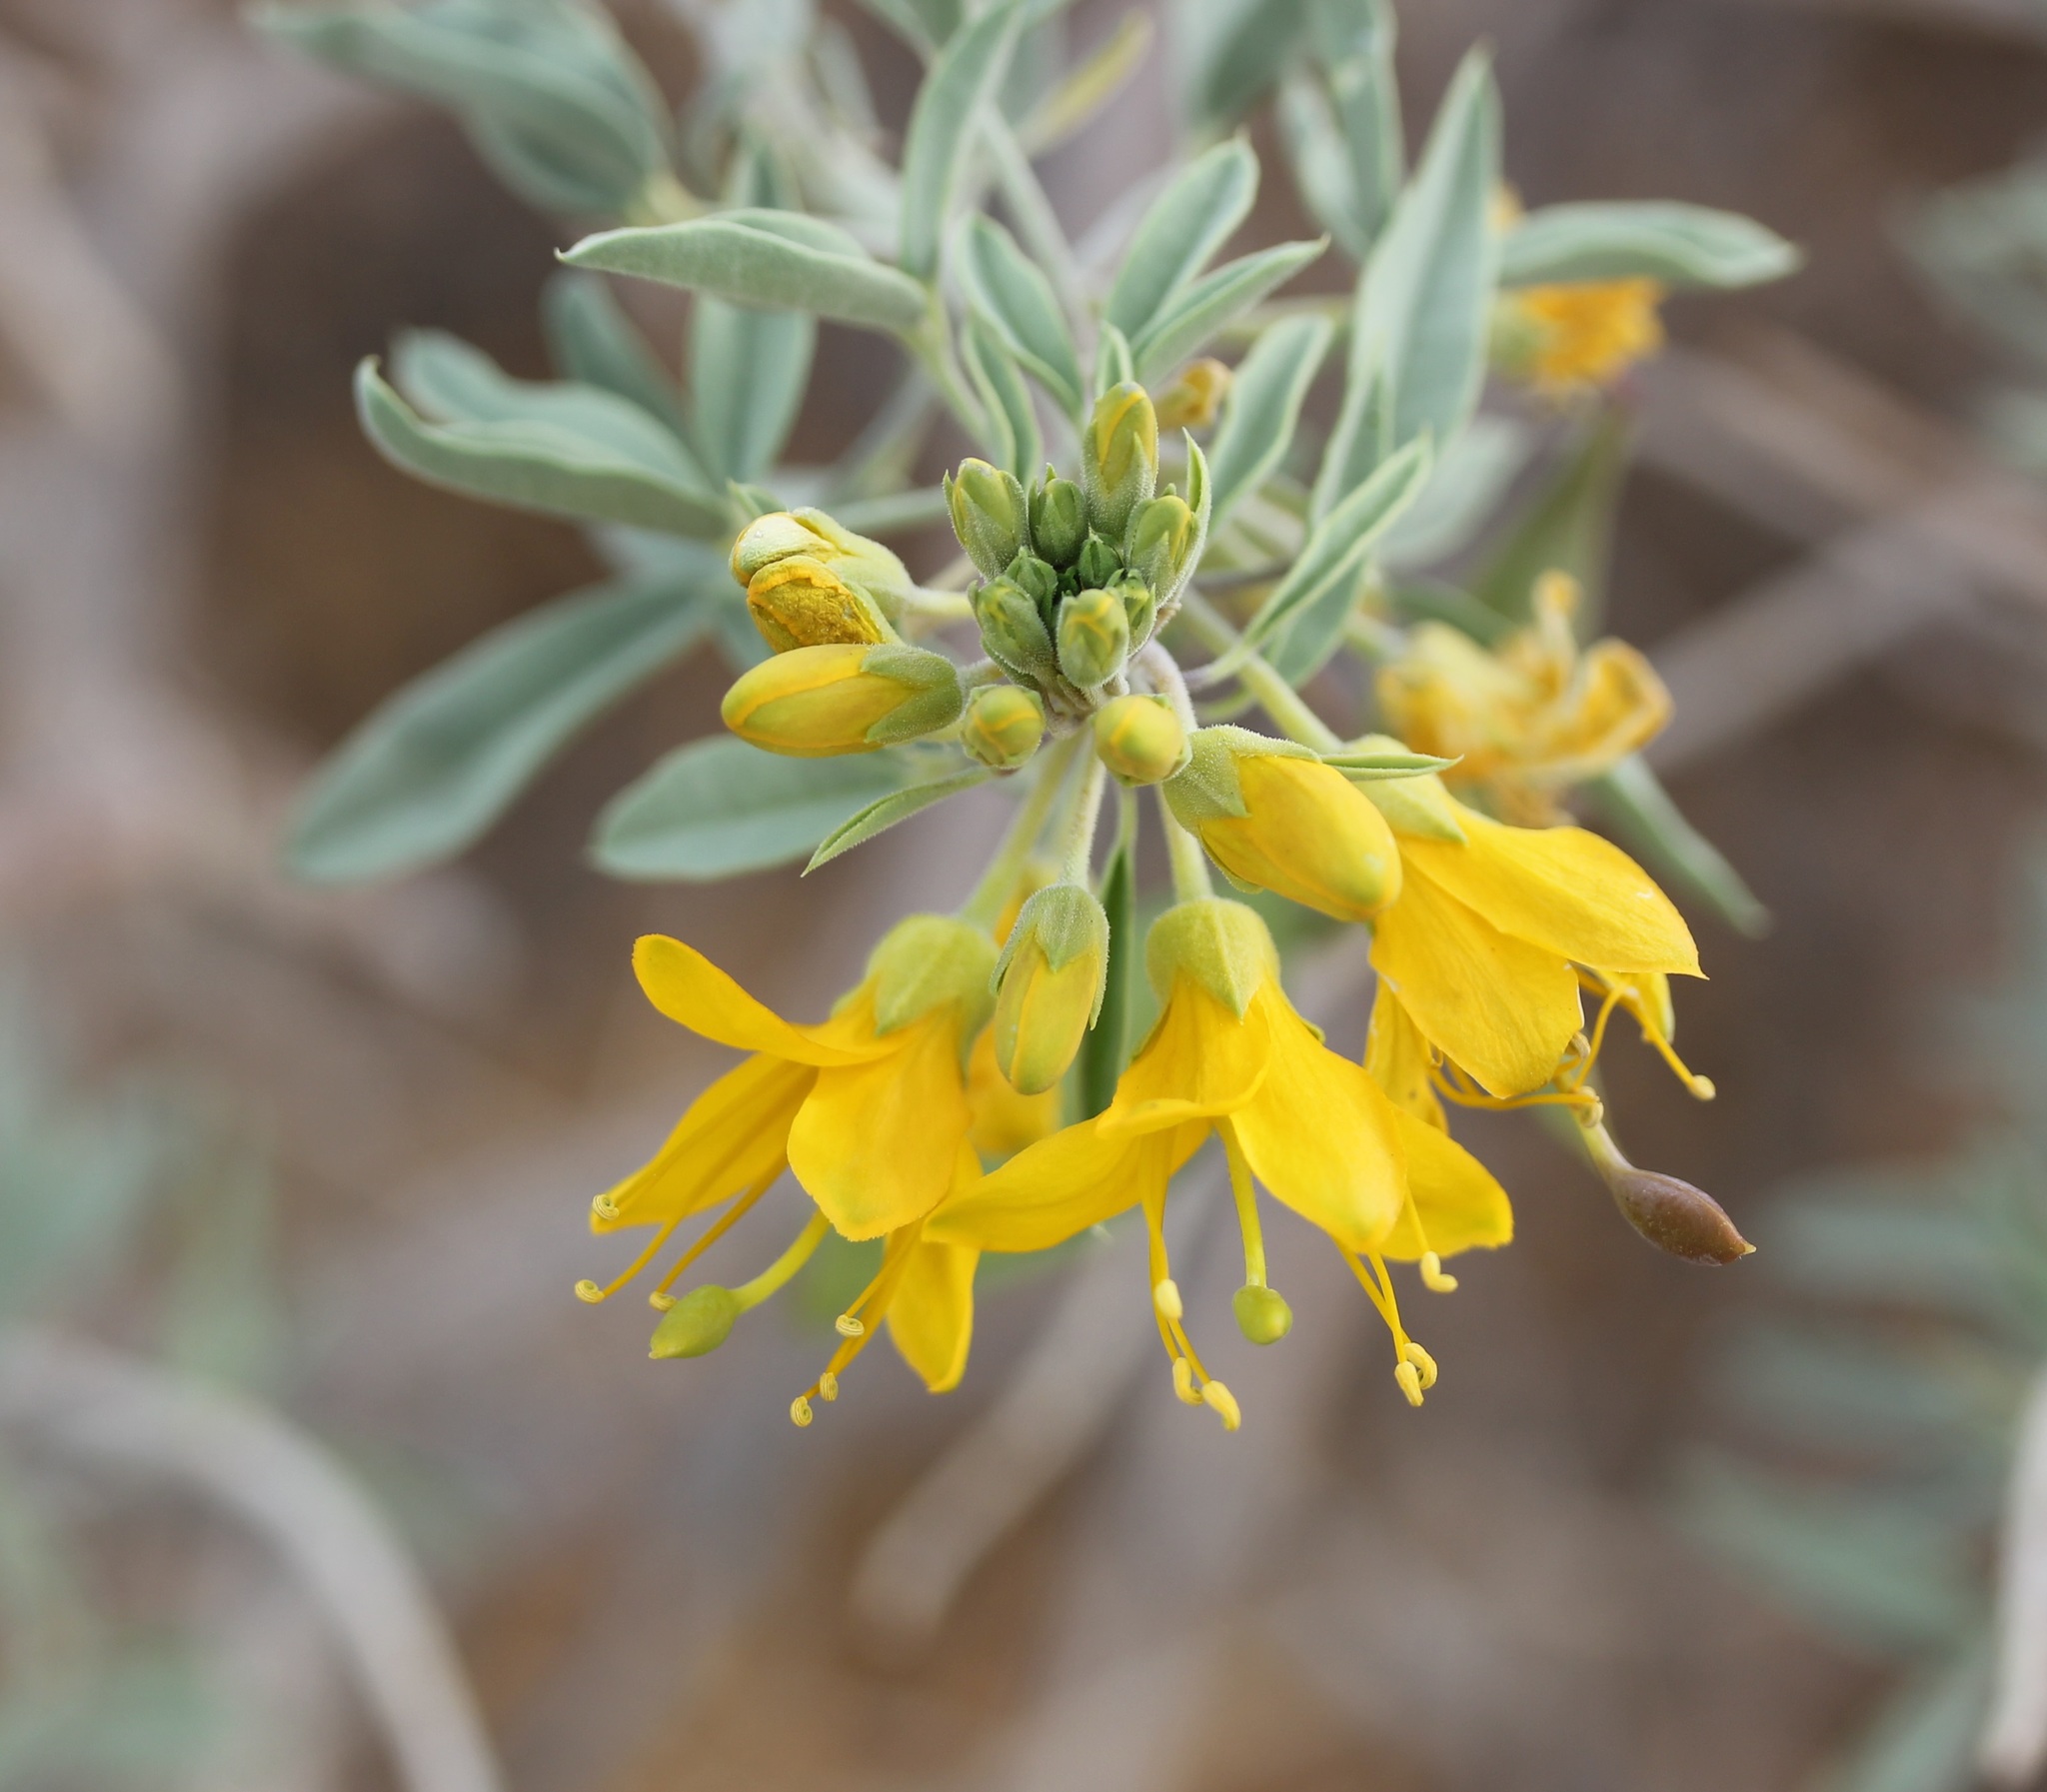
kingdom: Plantae
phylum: Tracheophyta
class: Magnoliopsida
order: Brassicales
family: Cleomaceae
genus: Cleomella
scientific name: Cleomella arborea
